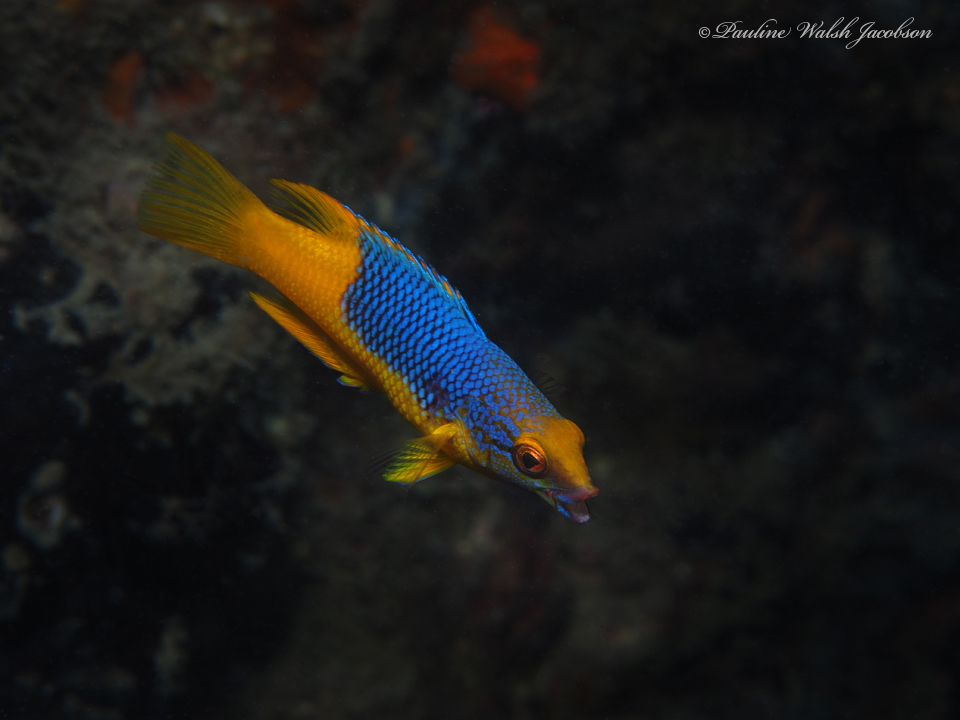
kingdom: Animalia
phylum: Chordata
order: Perciformes
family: Labridae
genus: Bodianus
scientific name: Bodianus rufus
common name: Spanish hogfish
